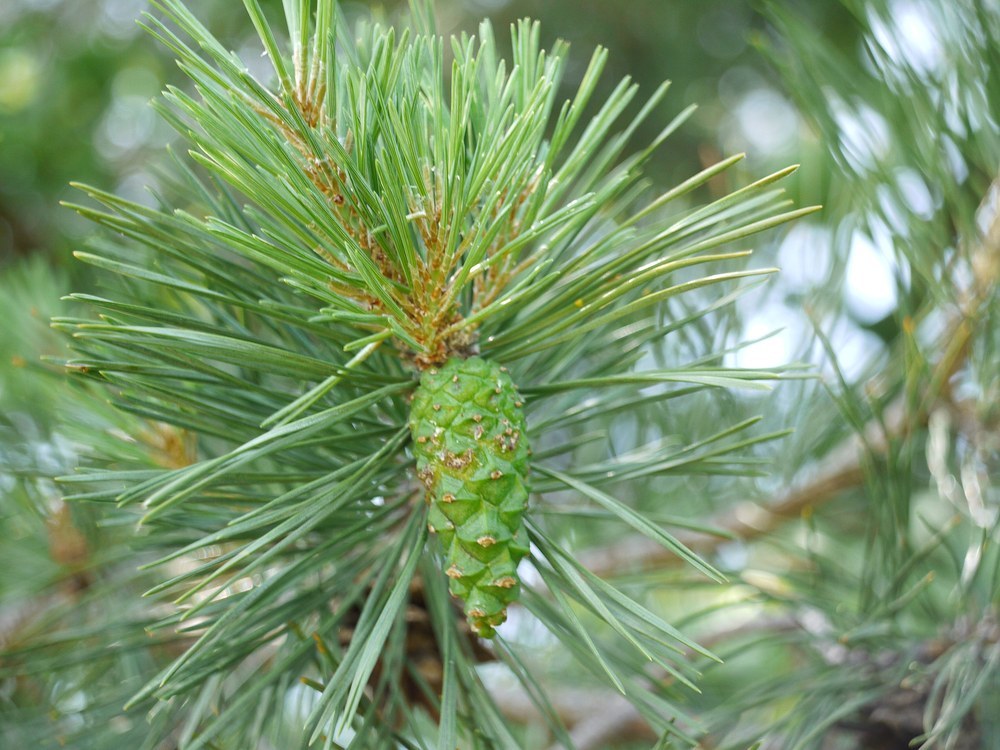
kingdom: Plantae
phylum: Tracheophyta
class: Pinopsida
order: Pinales
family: Pinaceae
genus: Pinus
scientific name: Pinus sylvestris
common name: Scots pine
